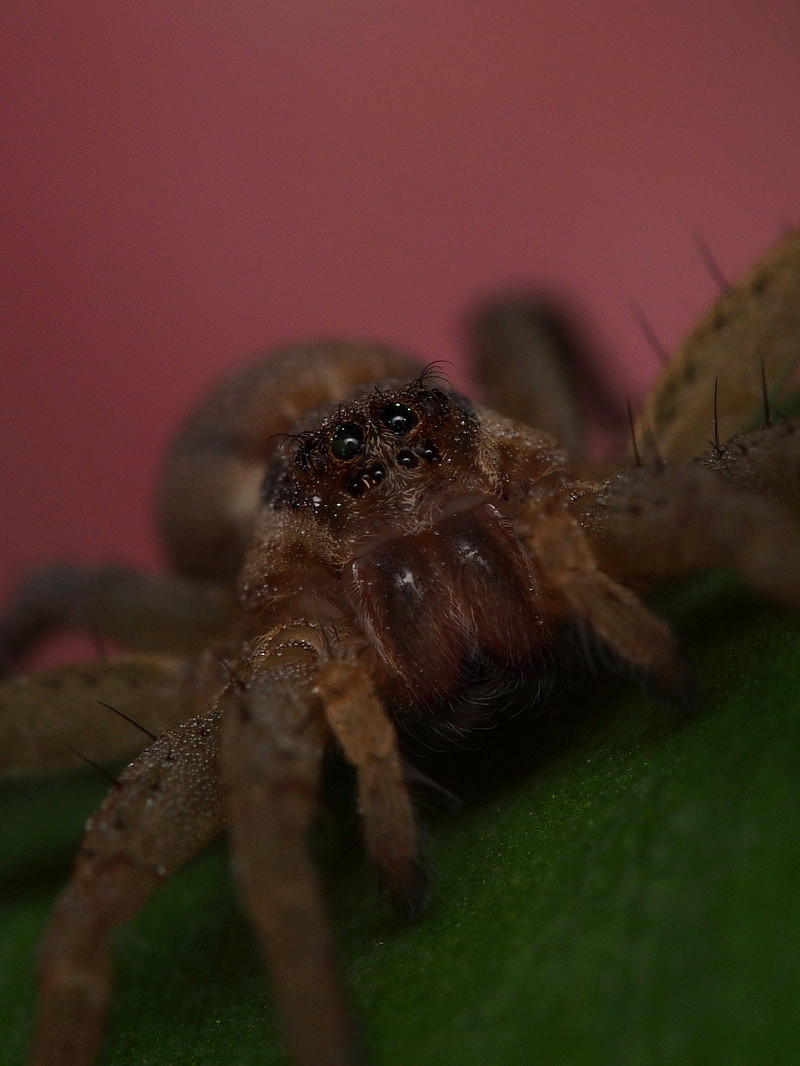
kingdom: Animalia
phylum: Arthropoda
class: Arachnida
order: Araneae
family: Pisauridae
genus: Dolomedes
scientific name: Dolomedes minor
